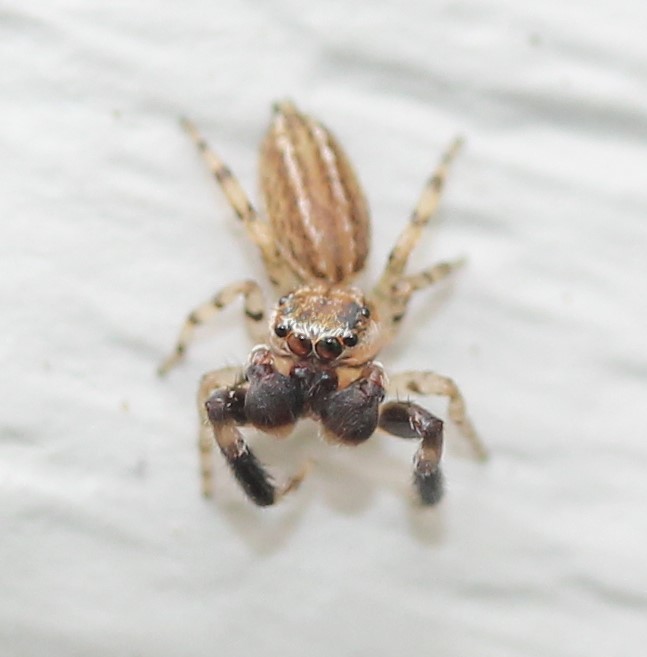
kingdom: Animalia
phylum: Arthropoda
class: Arachnida
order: Araneae
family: Salticidae
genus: Marpissa
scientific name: Marpissa lineata
